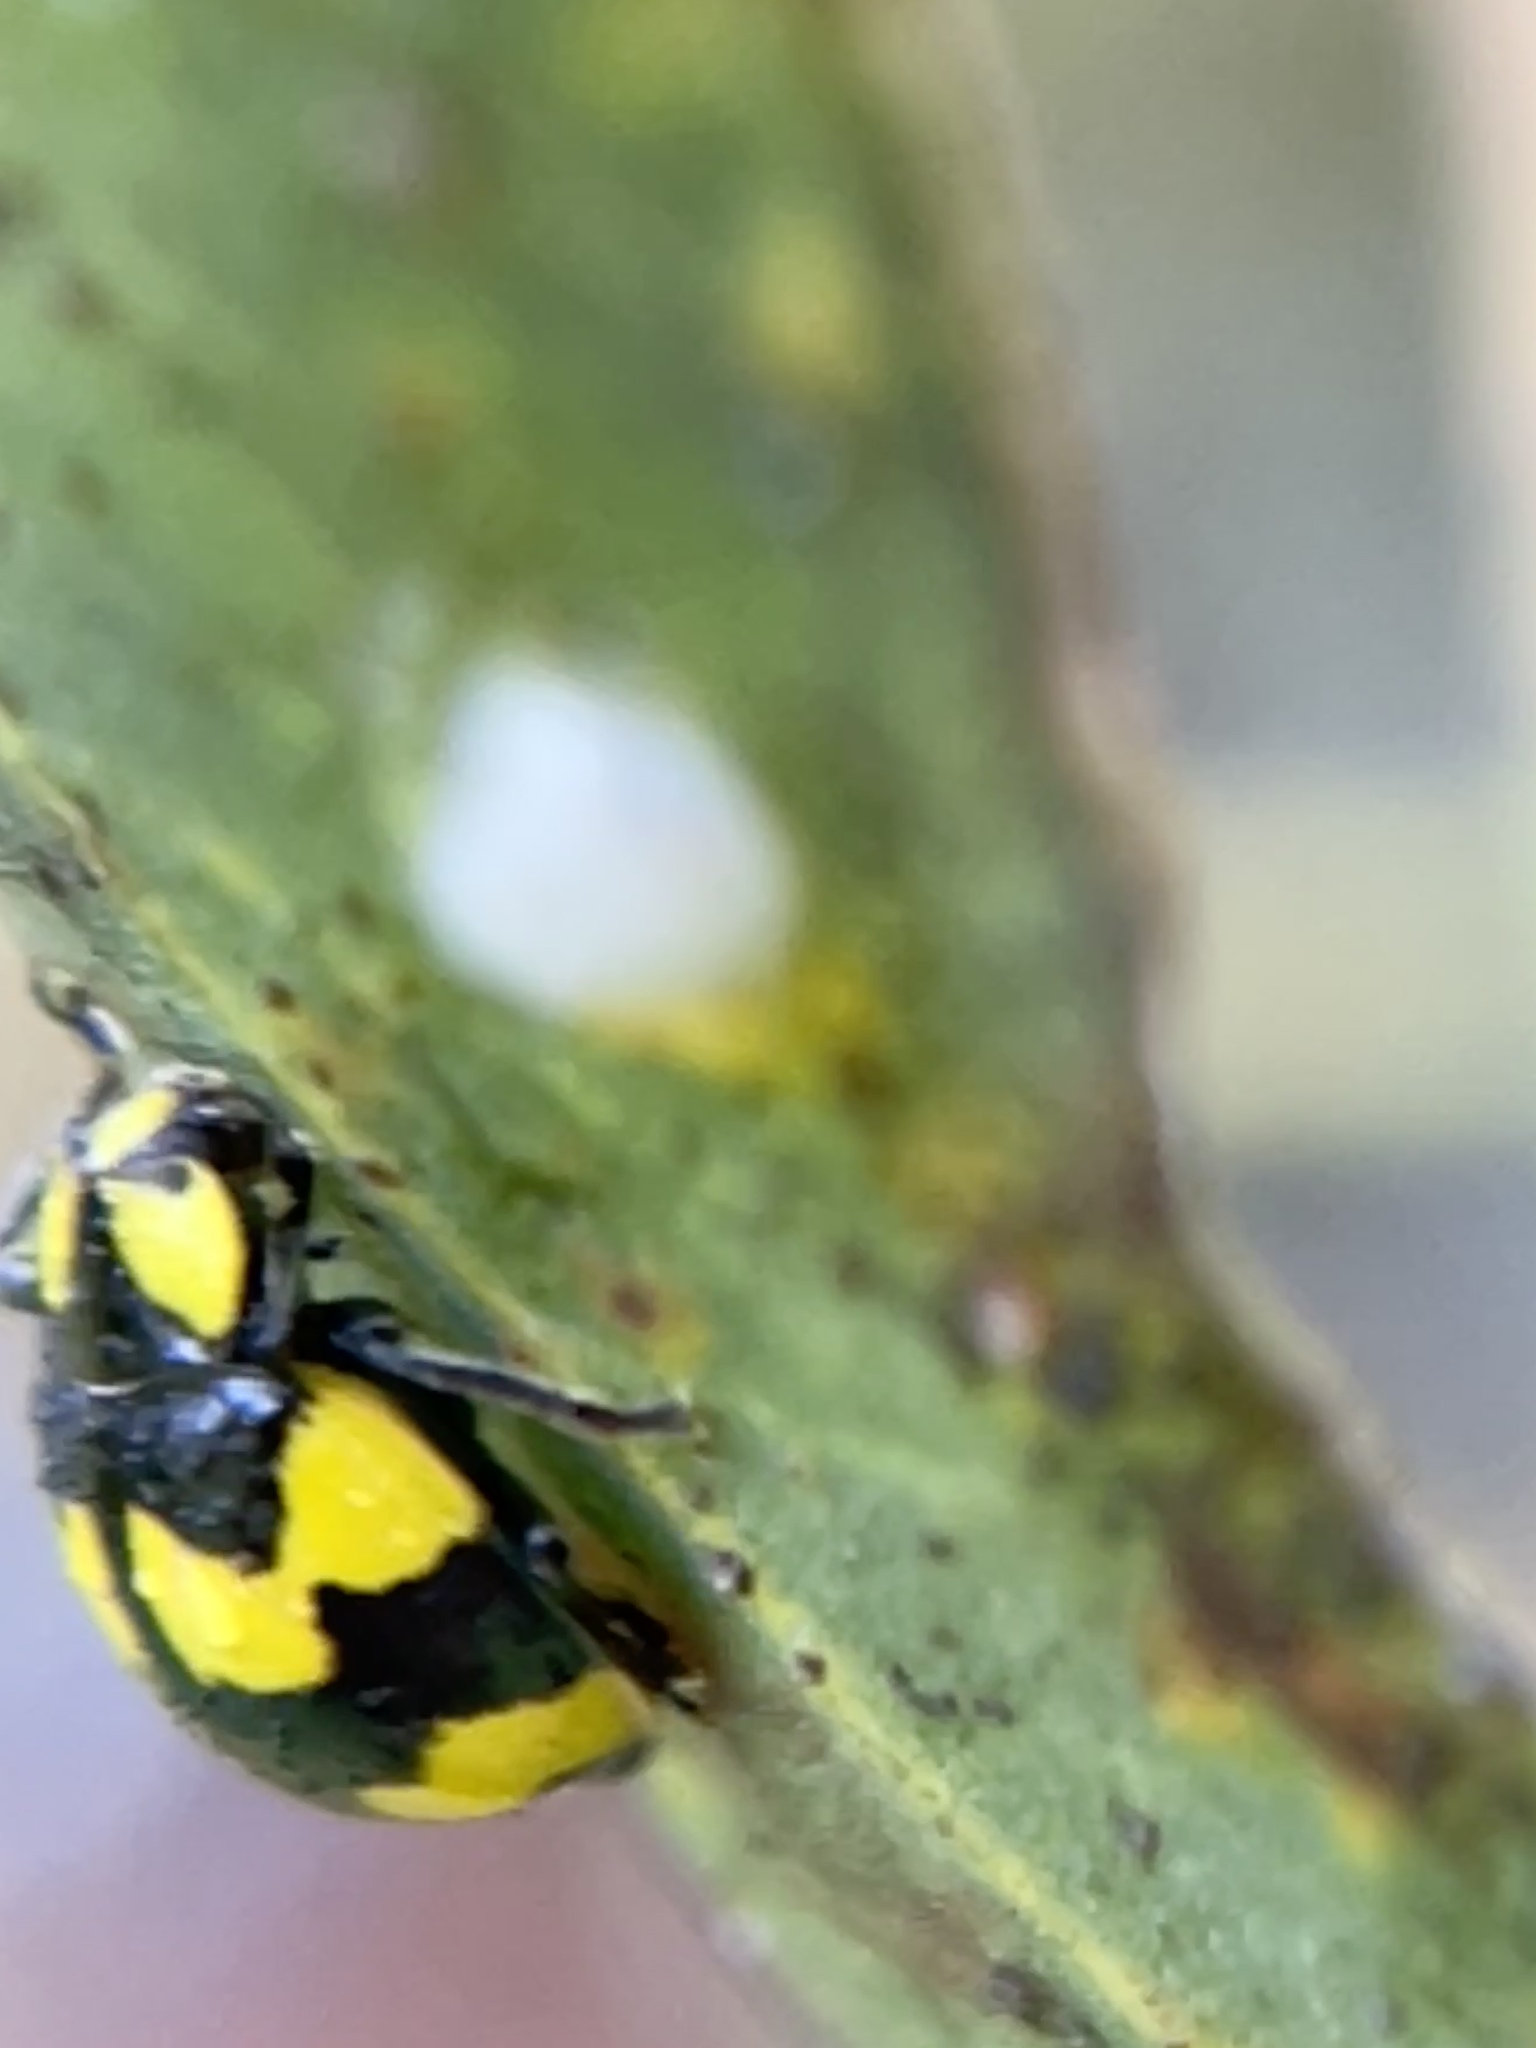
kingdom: Animalia
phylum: Arthropoda
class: Insecta
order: Coleoptera
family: Coccinellidae
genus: Illeis
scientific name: Illeis galbula
